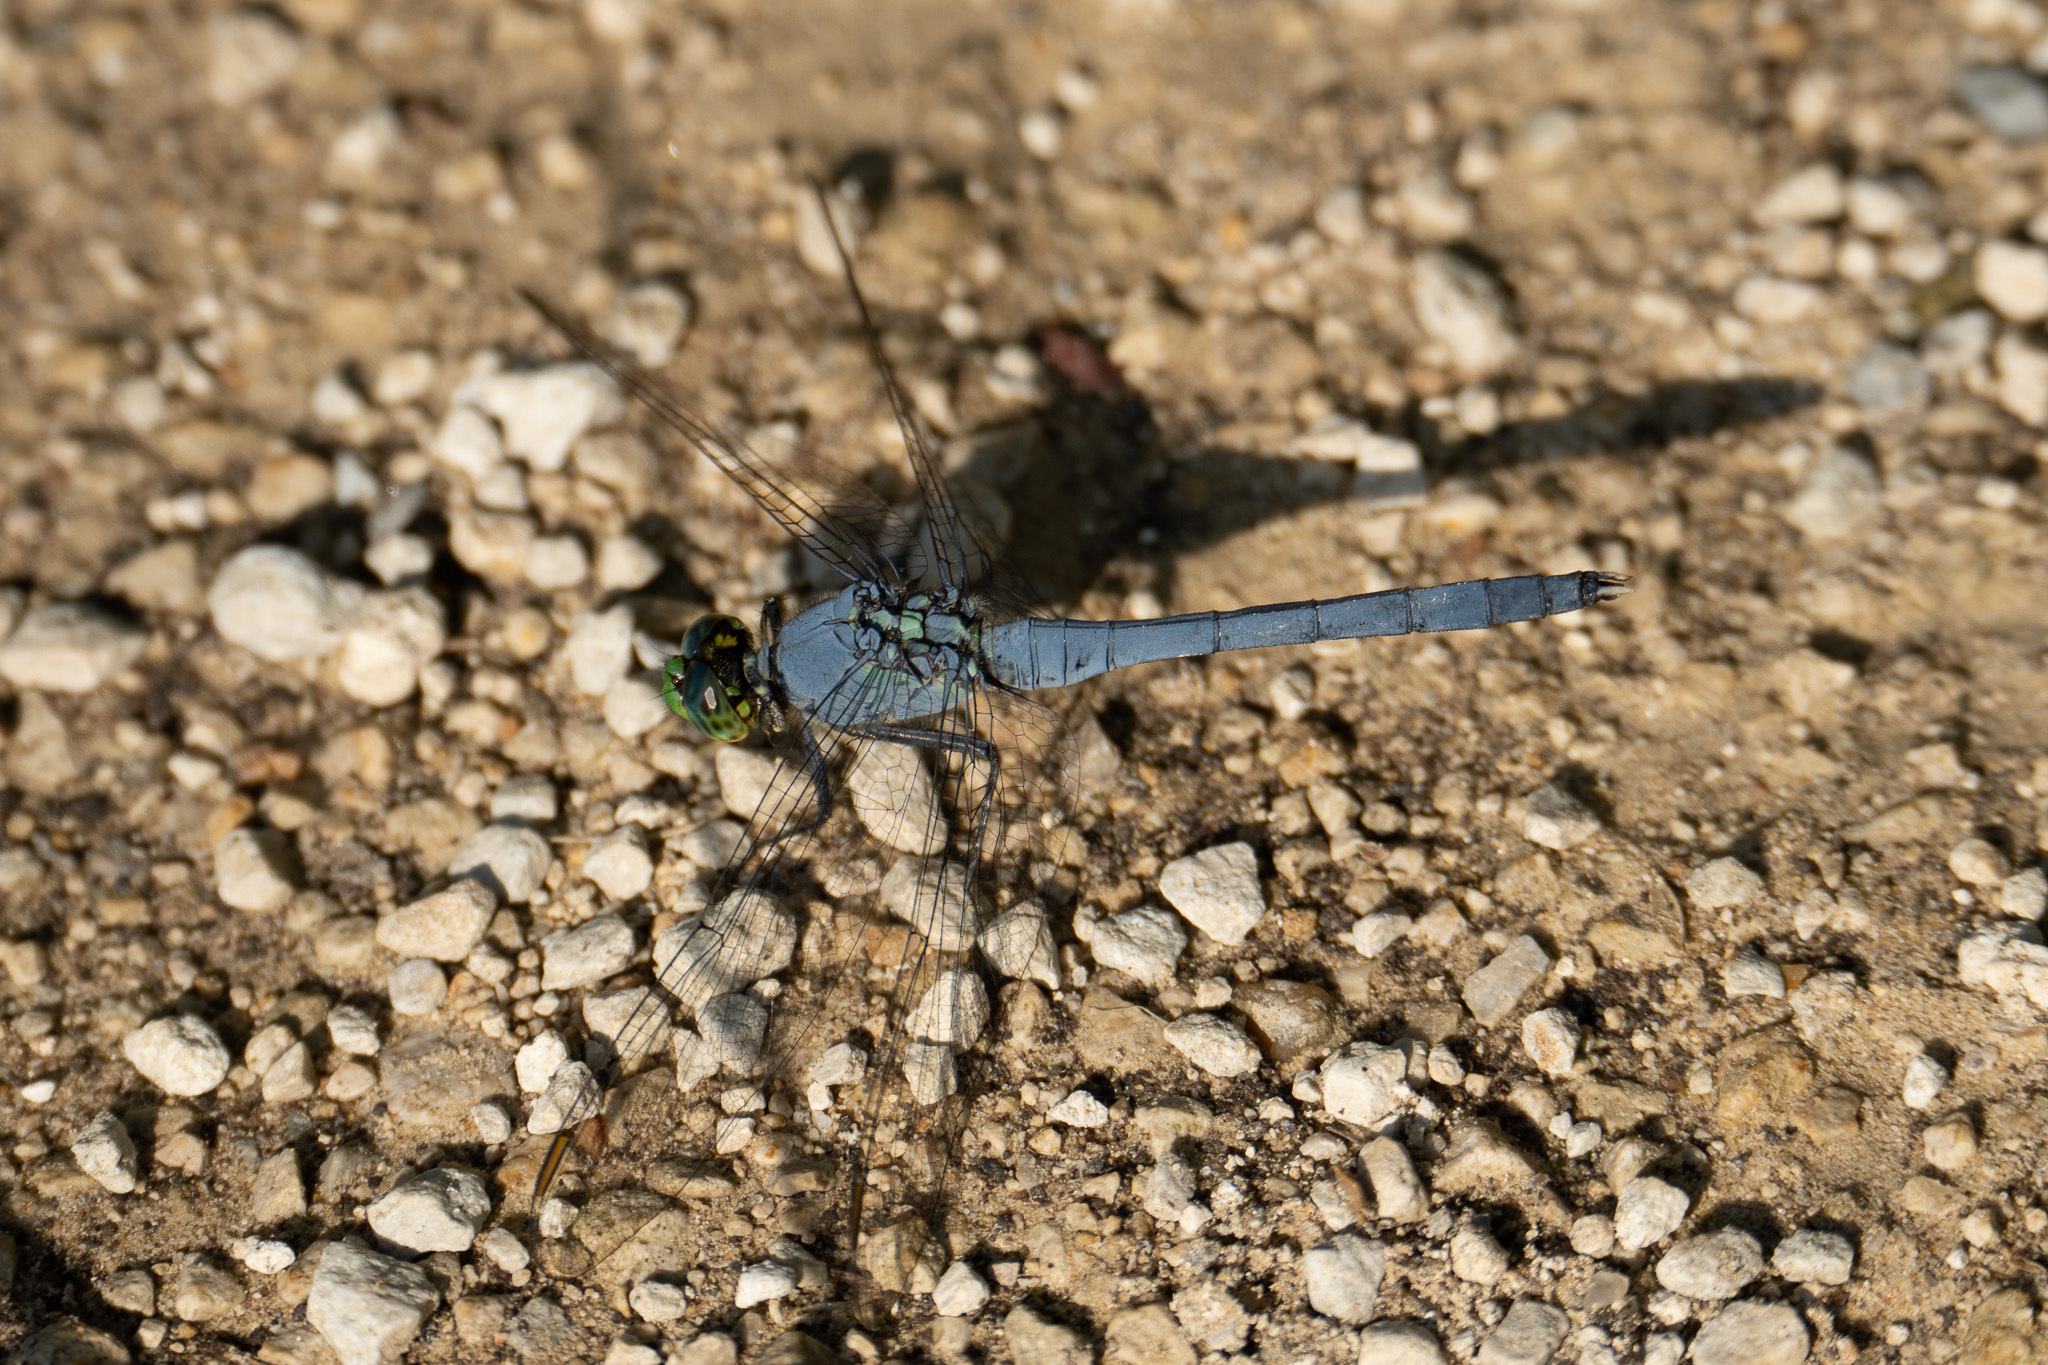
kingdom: Animalia
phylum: Arthropoda
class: Insecta
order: Odonata
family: Libellulidae
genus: Erythemis
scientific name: Erythemis simplicicollis
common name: Eastern pondhawk
